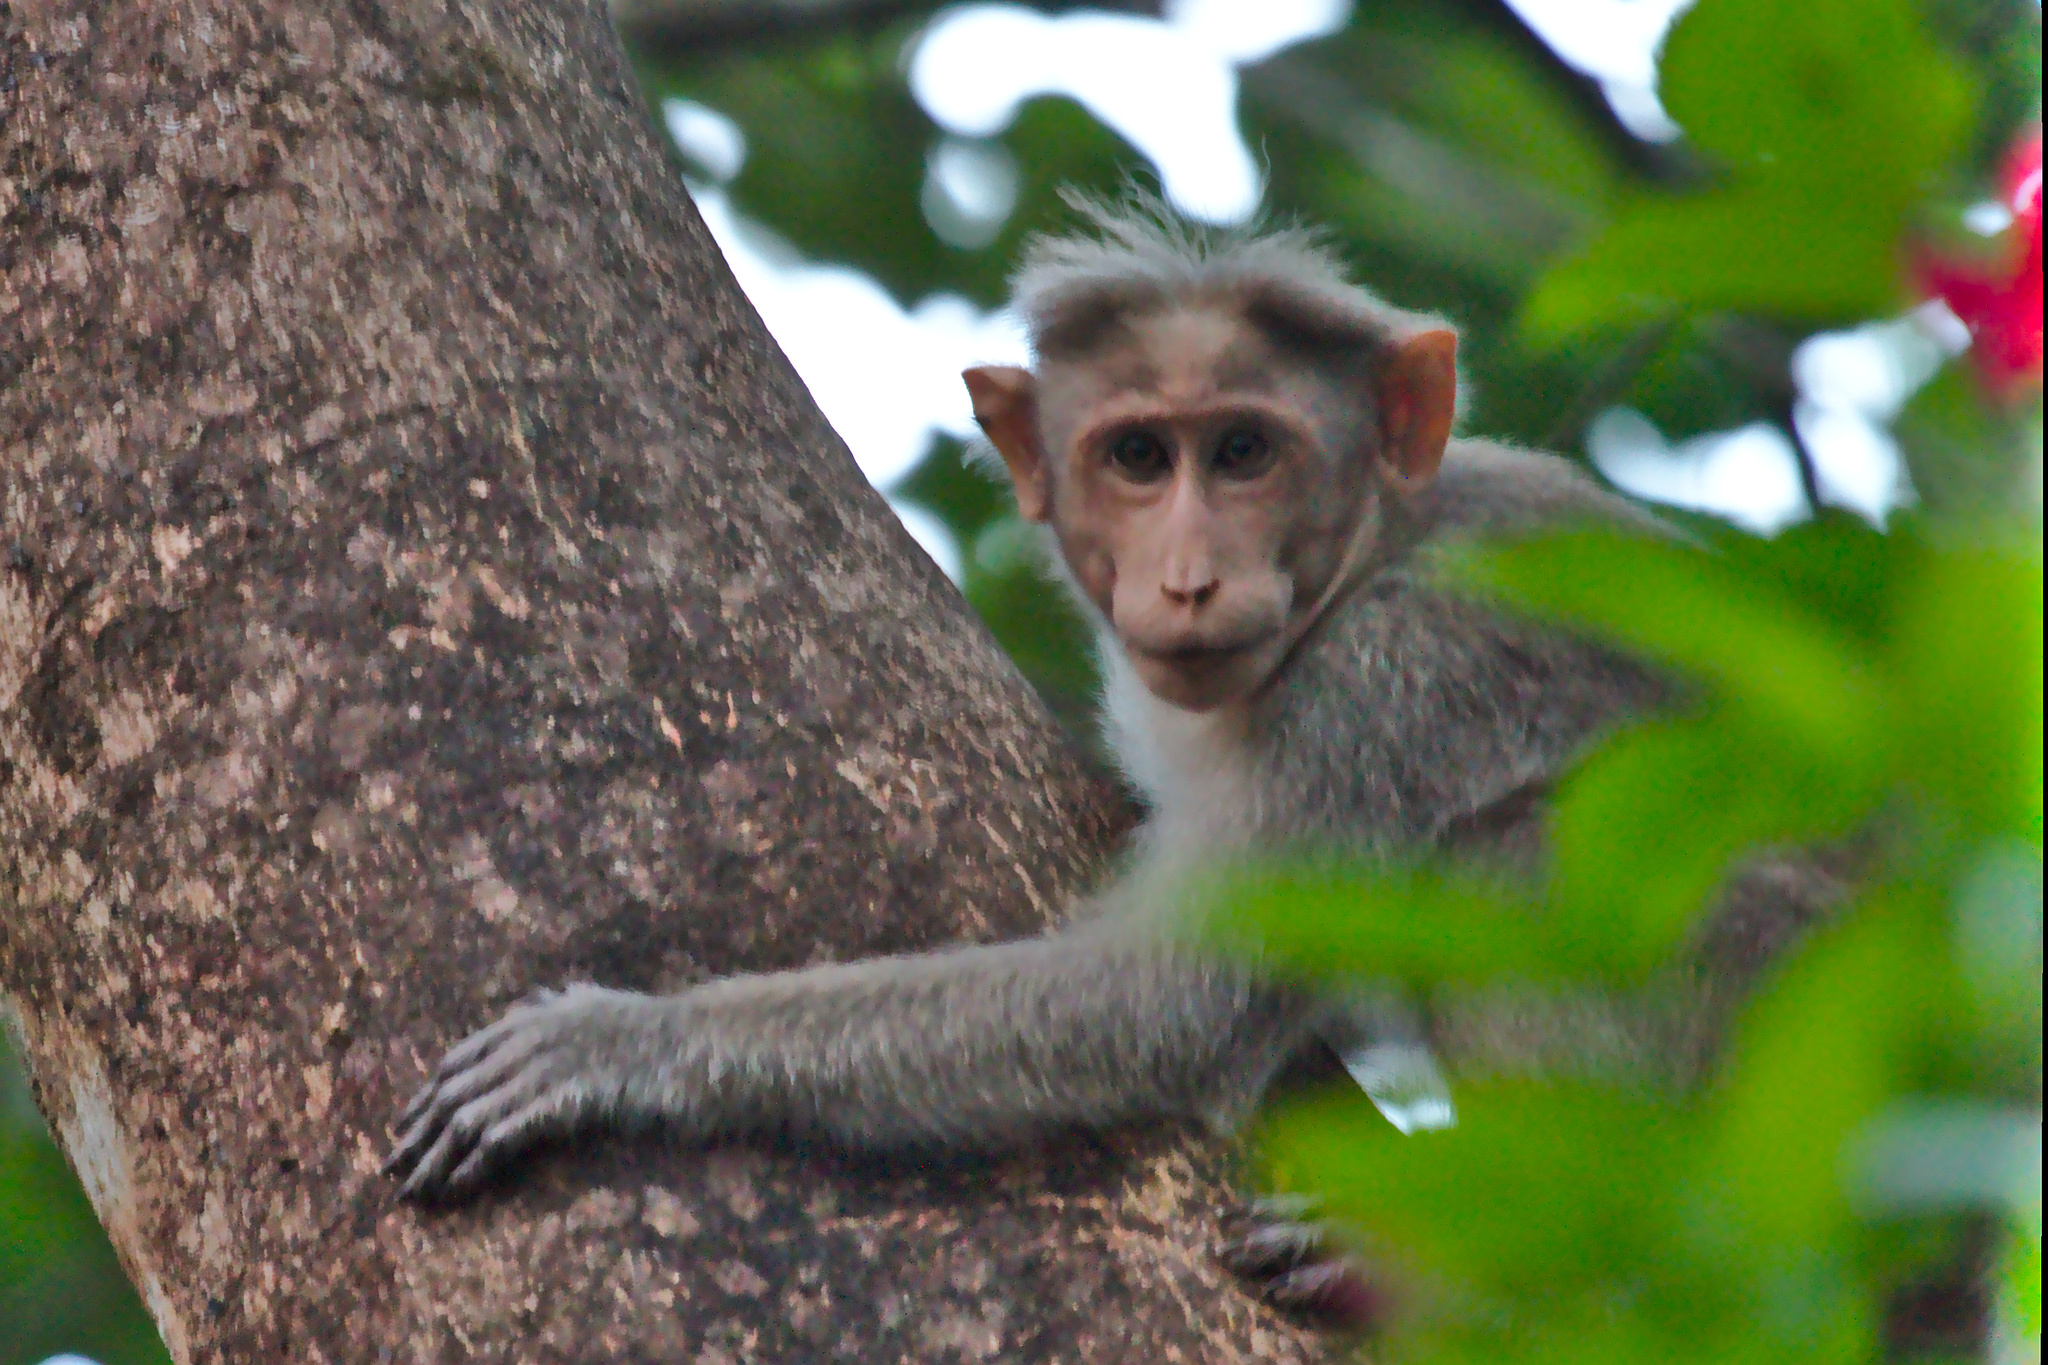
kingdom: Animalia
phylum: Chordata
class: Mammalia
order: Primates
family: Cercopithecidae
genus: Macaca
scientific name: Macaca radiata
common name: Bonnet macaque
